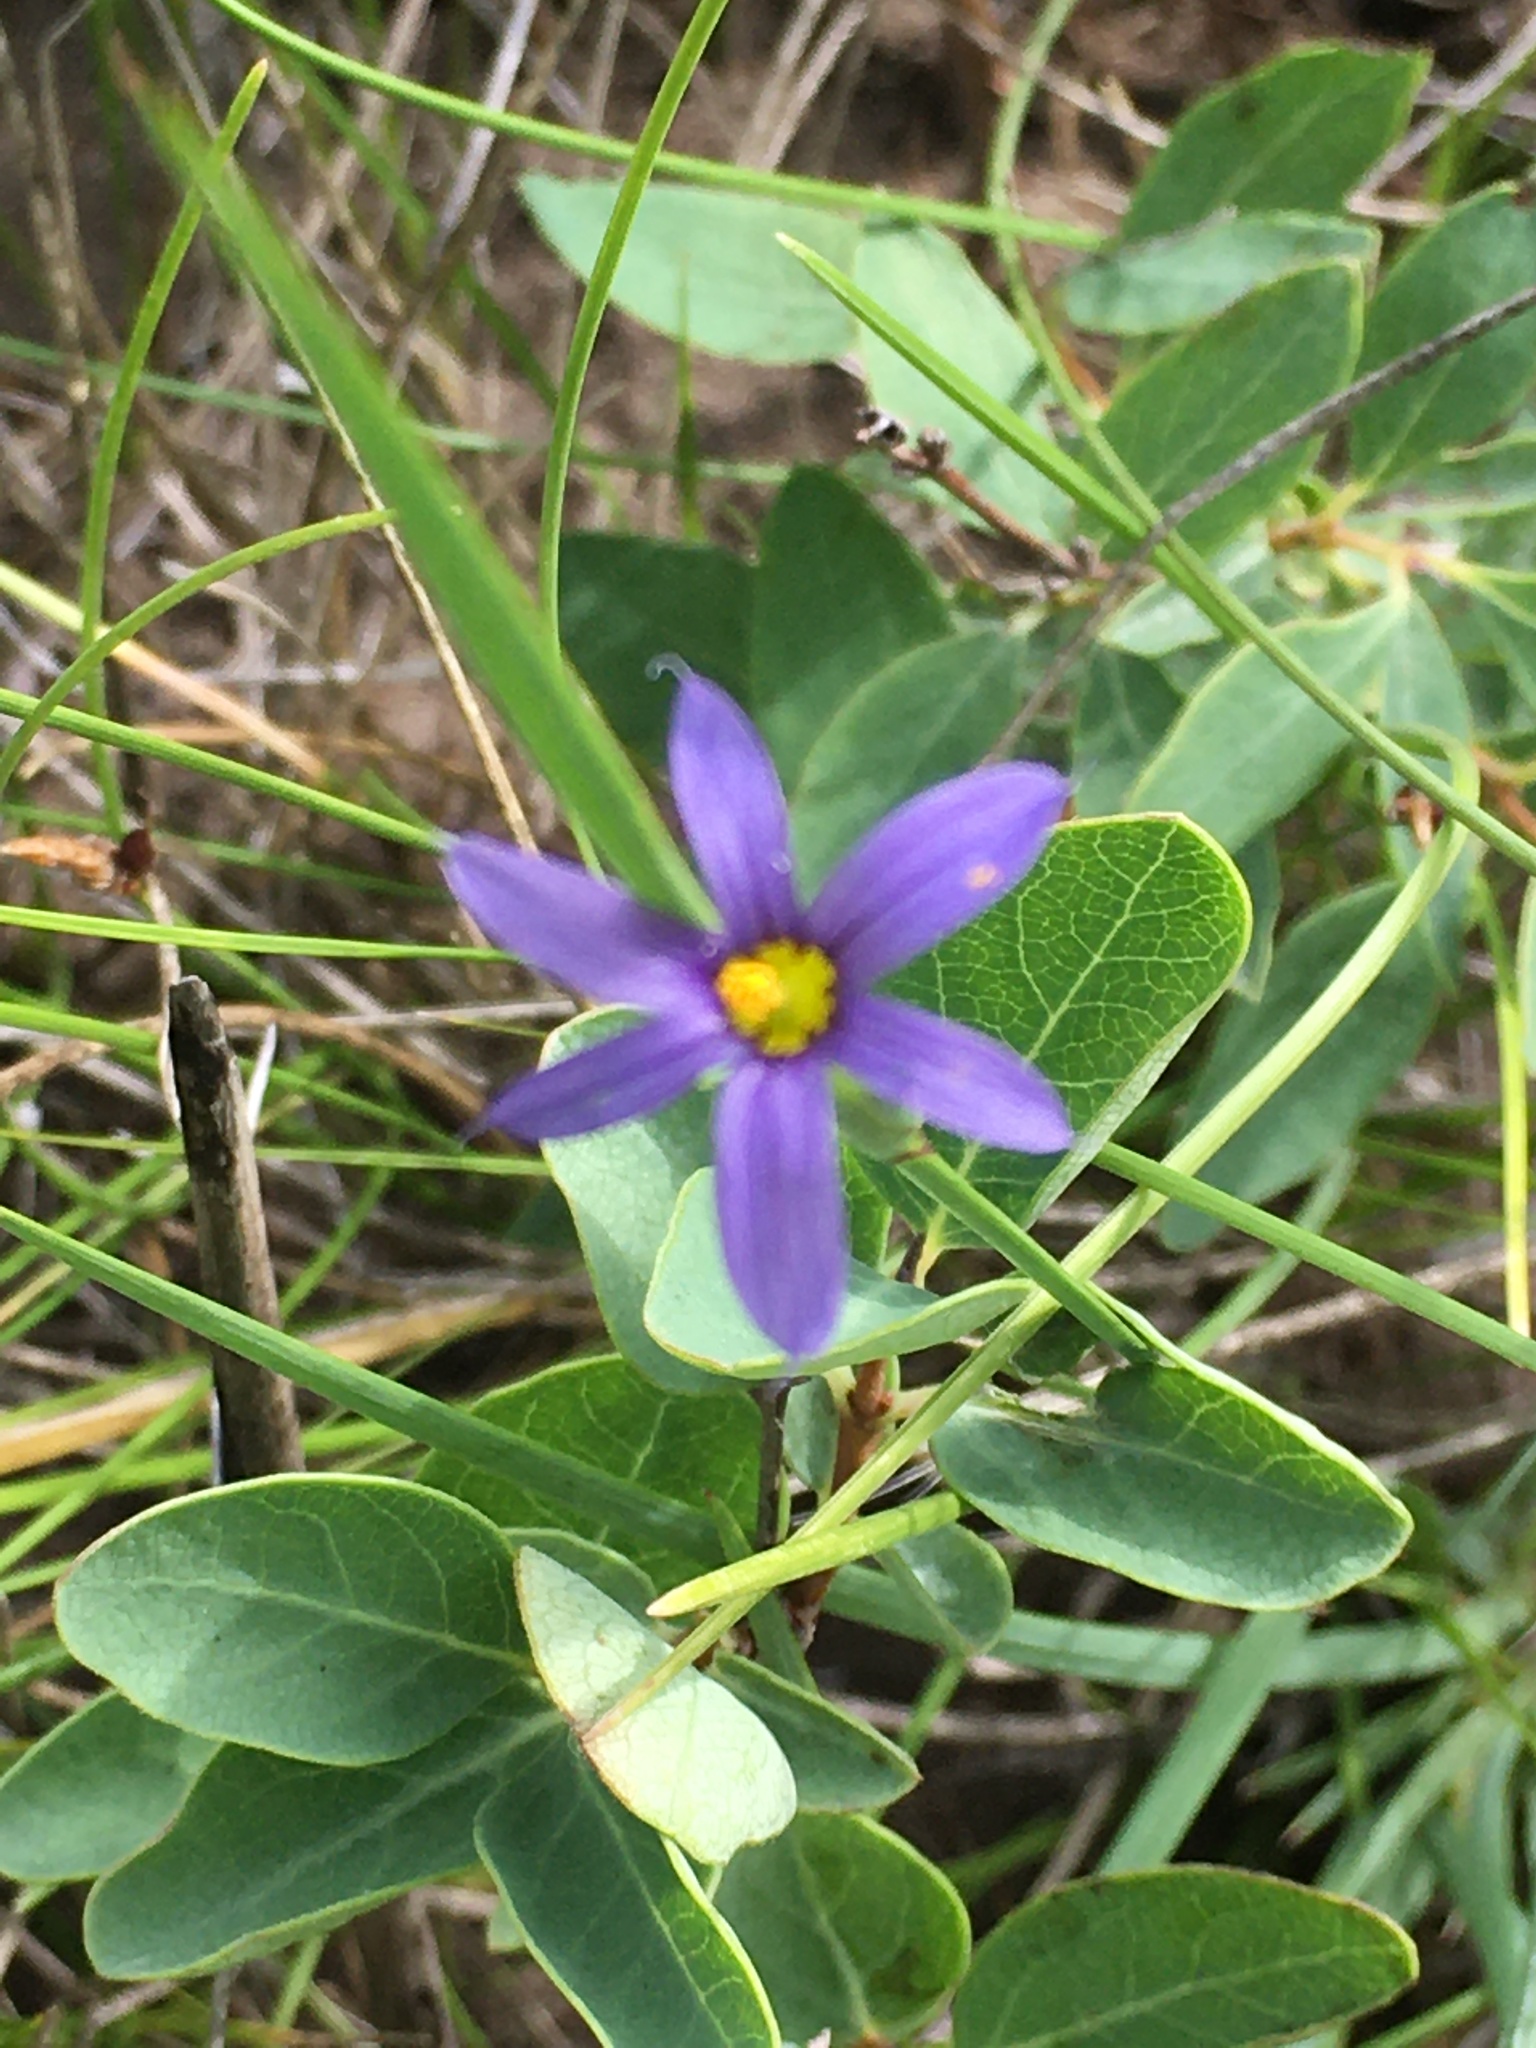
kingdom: Plantae
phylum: Tracheophyta
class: Liliopsida
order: Asparagales
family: Iridaceae
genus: Sisyrinchium
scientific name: Sisyrinchium montanum
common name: American blue-eyed-grass
